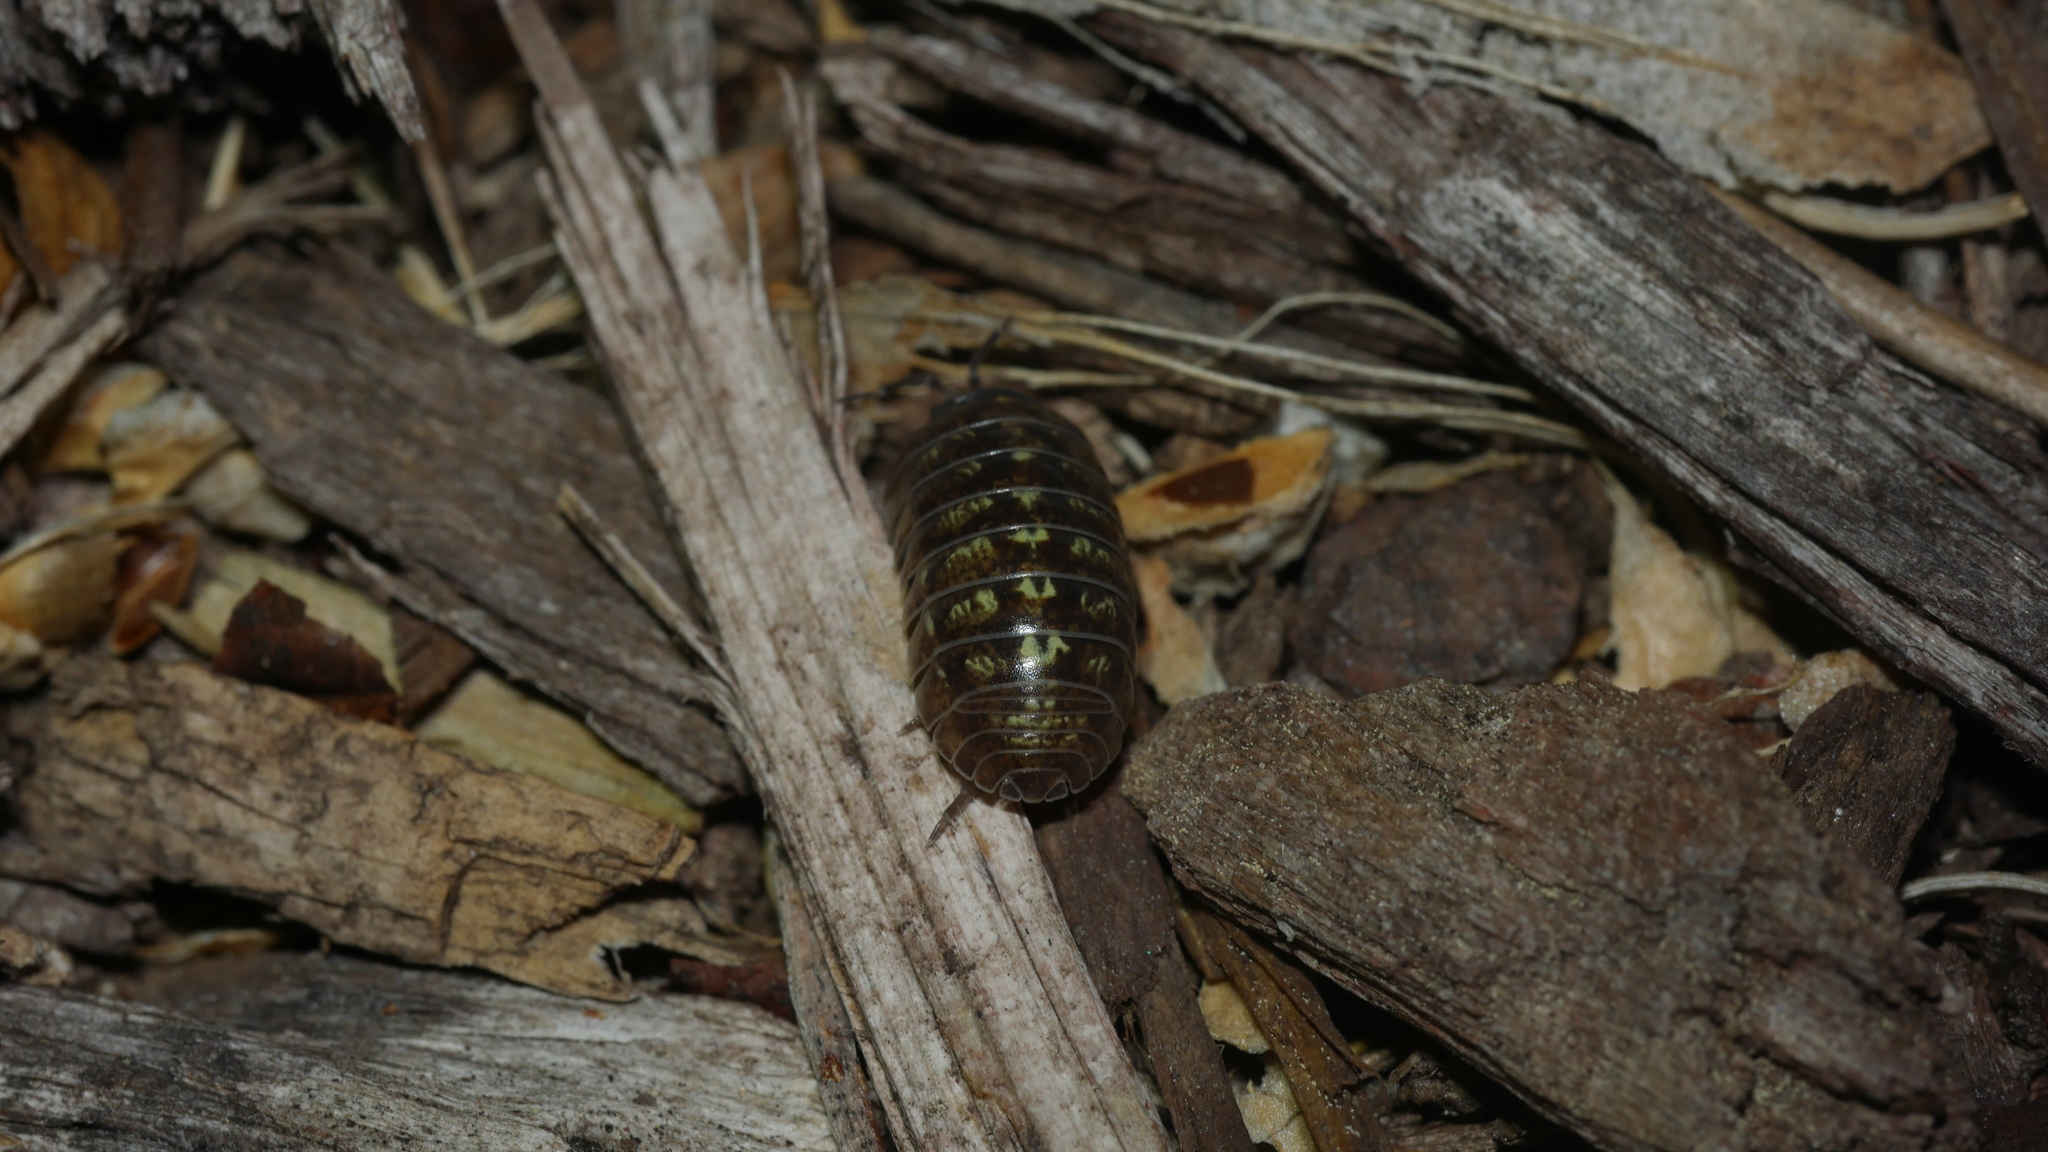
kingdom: Animalia
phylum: Arthropoda
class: Malacostraca
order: Isopoda
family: Armadillidiidae
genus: Armadillidium
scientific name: Armadillidium vulgare
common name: Common pill woodlouse
